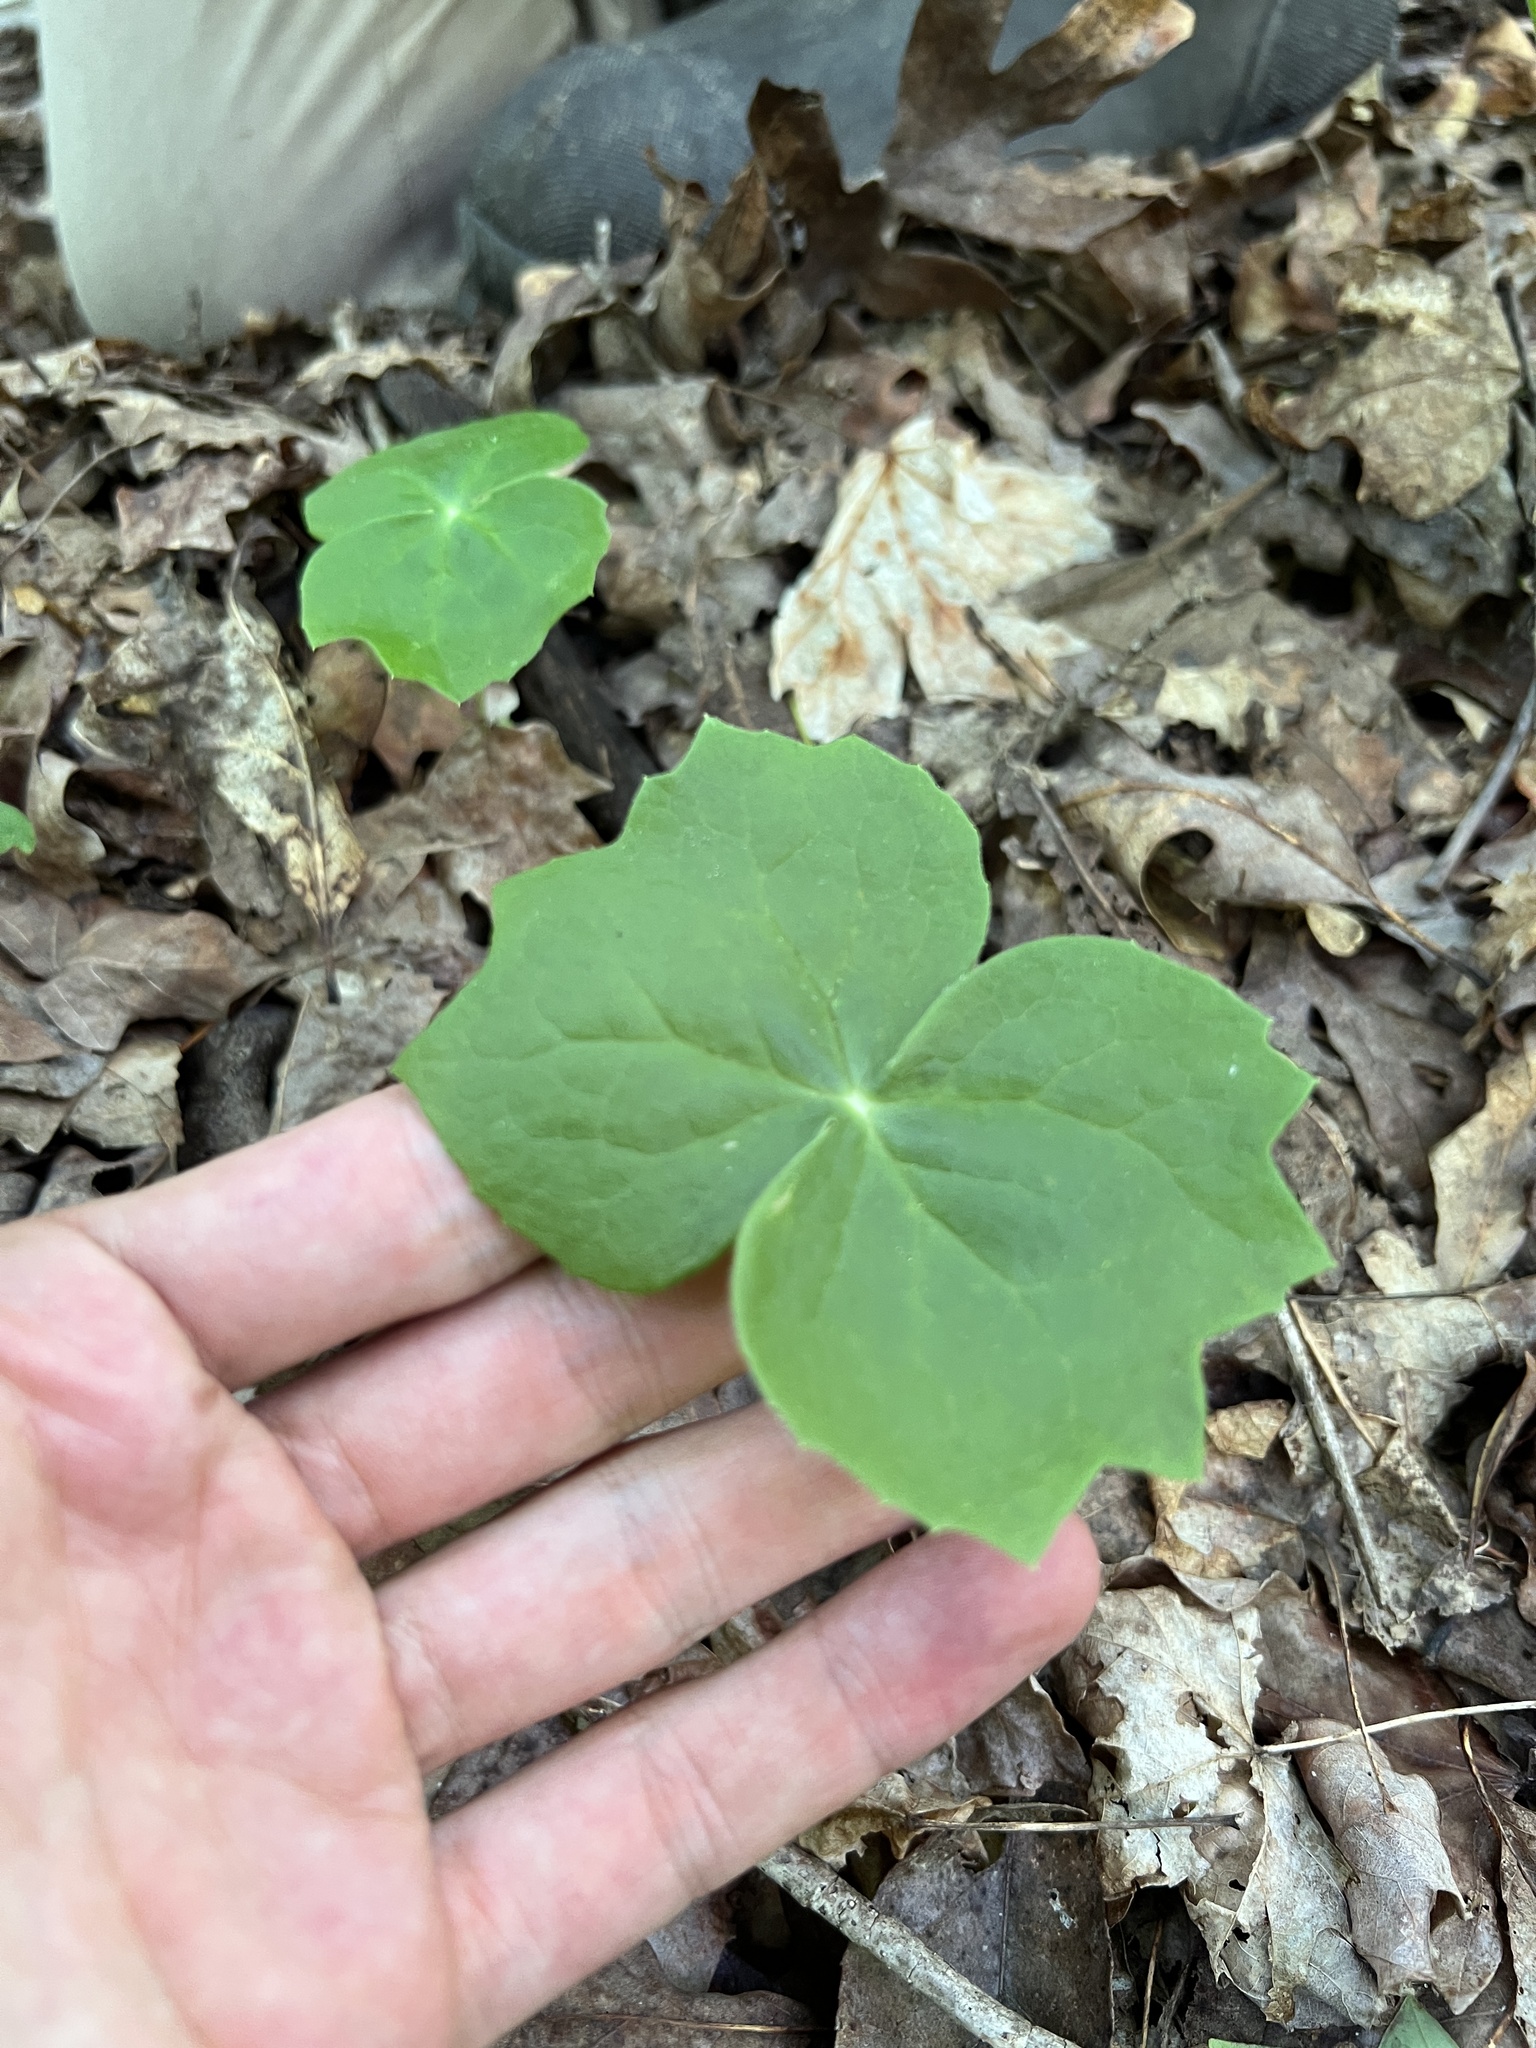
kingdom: Plantae
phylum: Tracheophyta
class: Magnoliopsida
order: Ranunculales
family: Berberidaceae
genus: Podophyllum
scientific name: Podophyllum peltatum
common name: Wild mandrake
